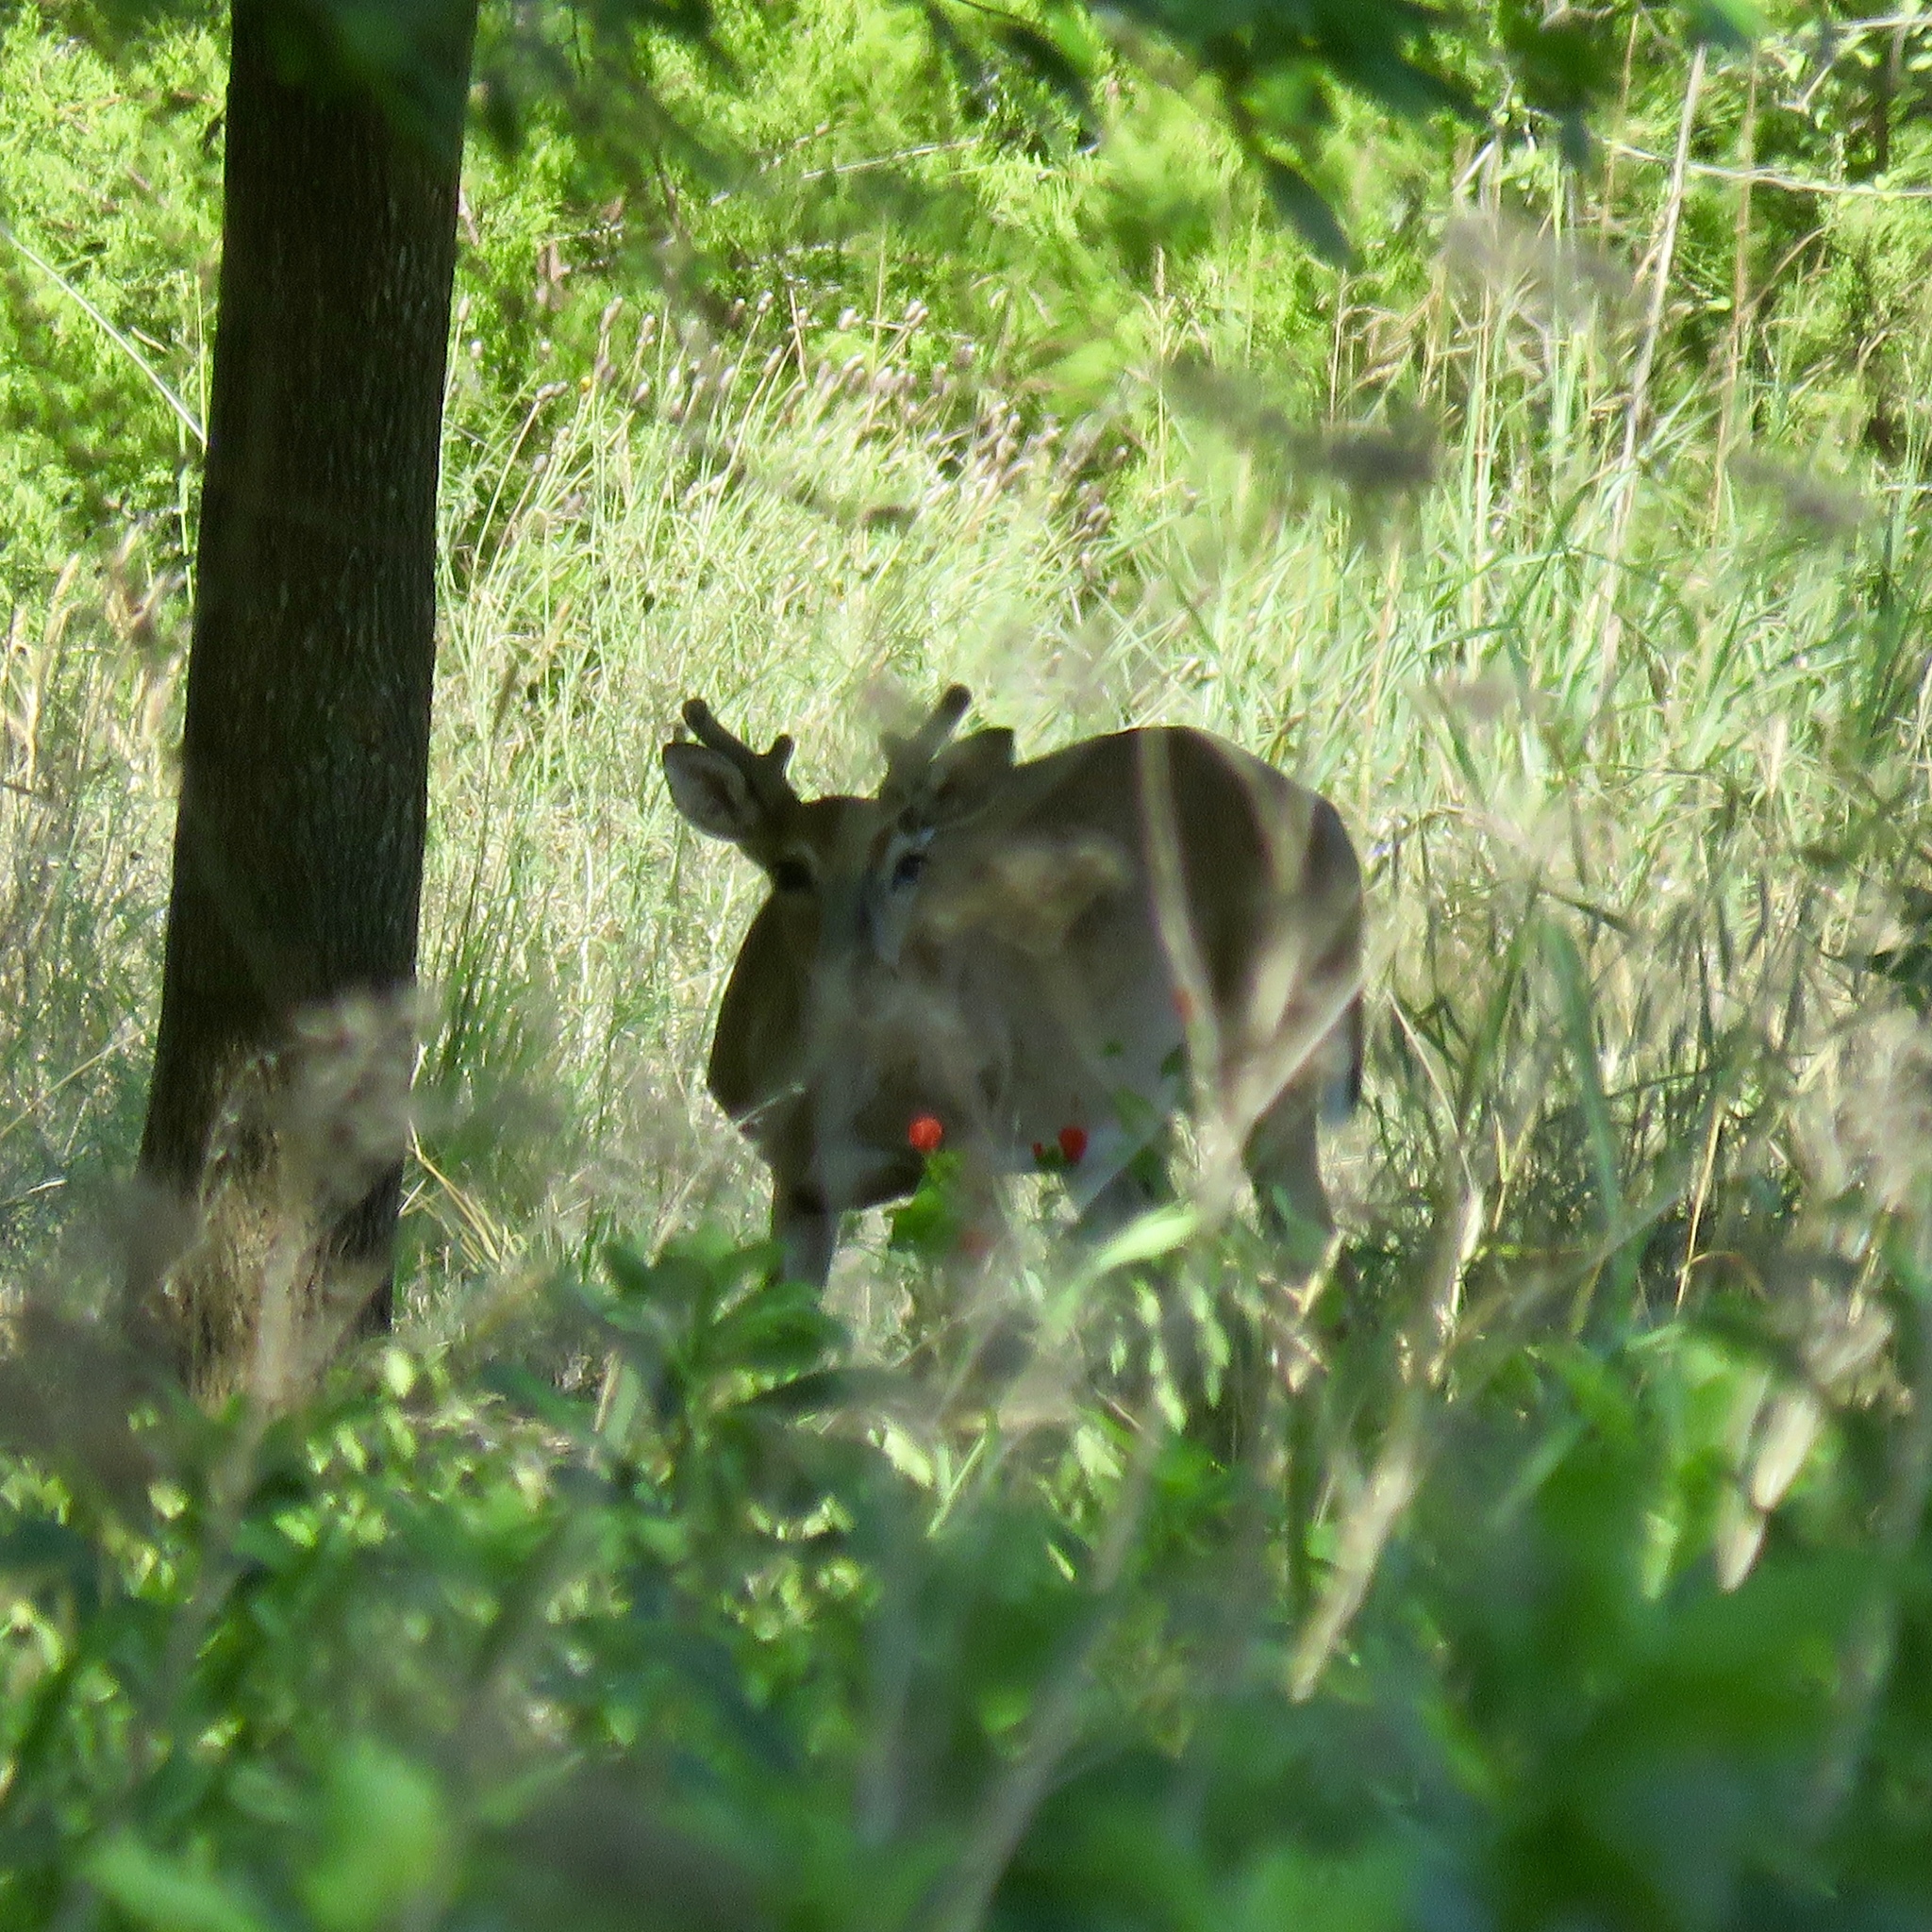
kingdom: Animalia
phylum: Chordata
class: Mammalia
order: Artiodactyla
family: Cervidae
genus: Odocoileus
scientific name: Odocoileus virginianus
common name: White-tailed deer
